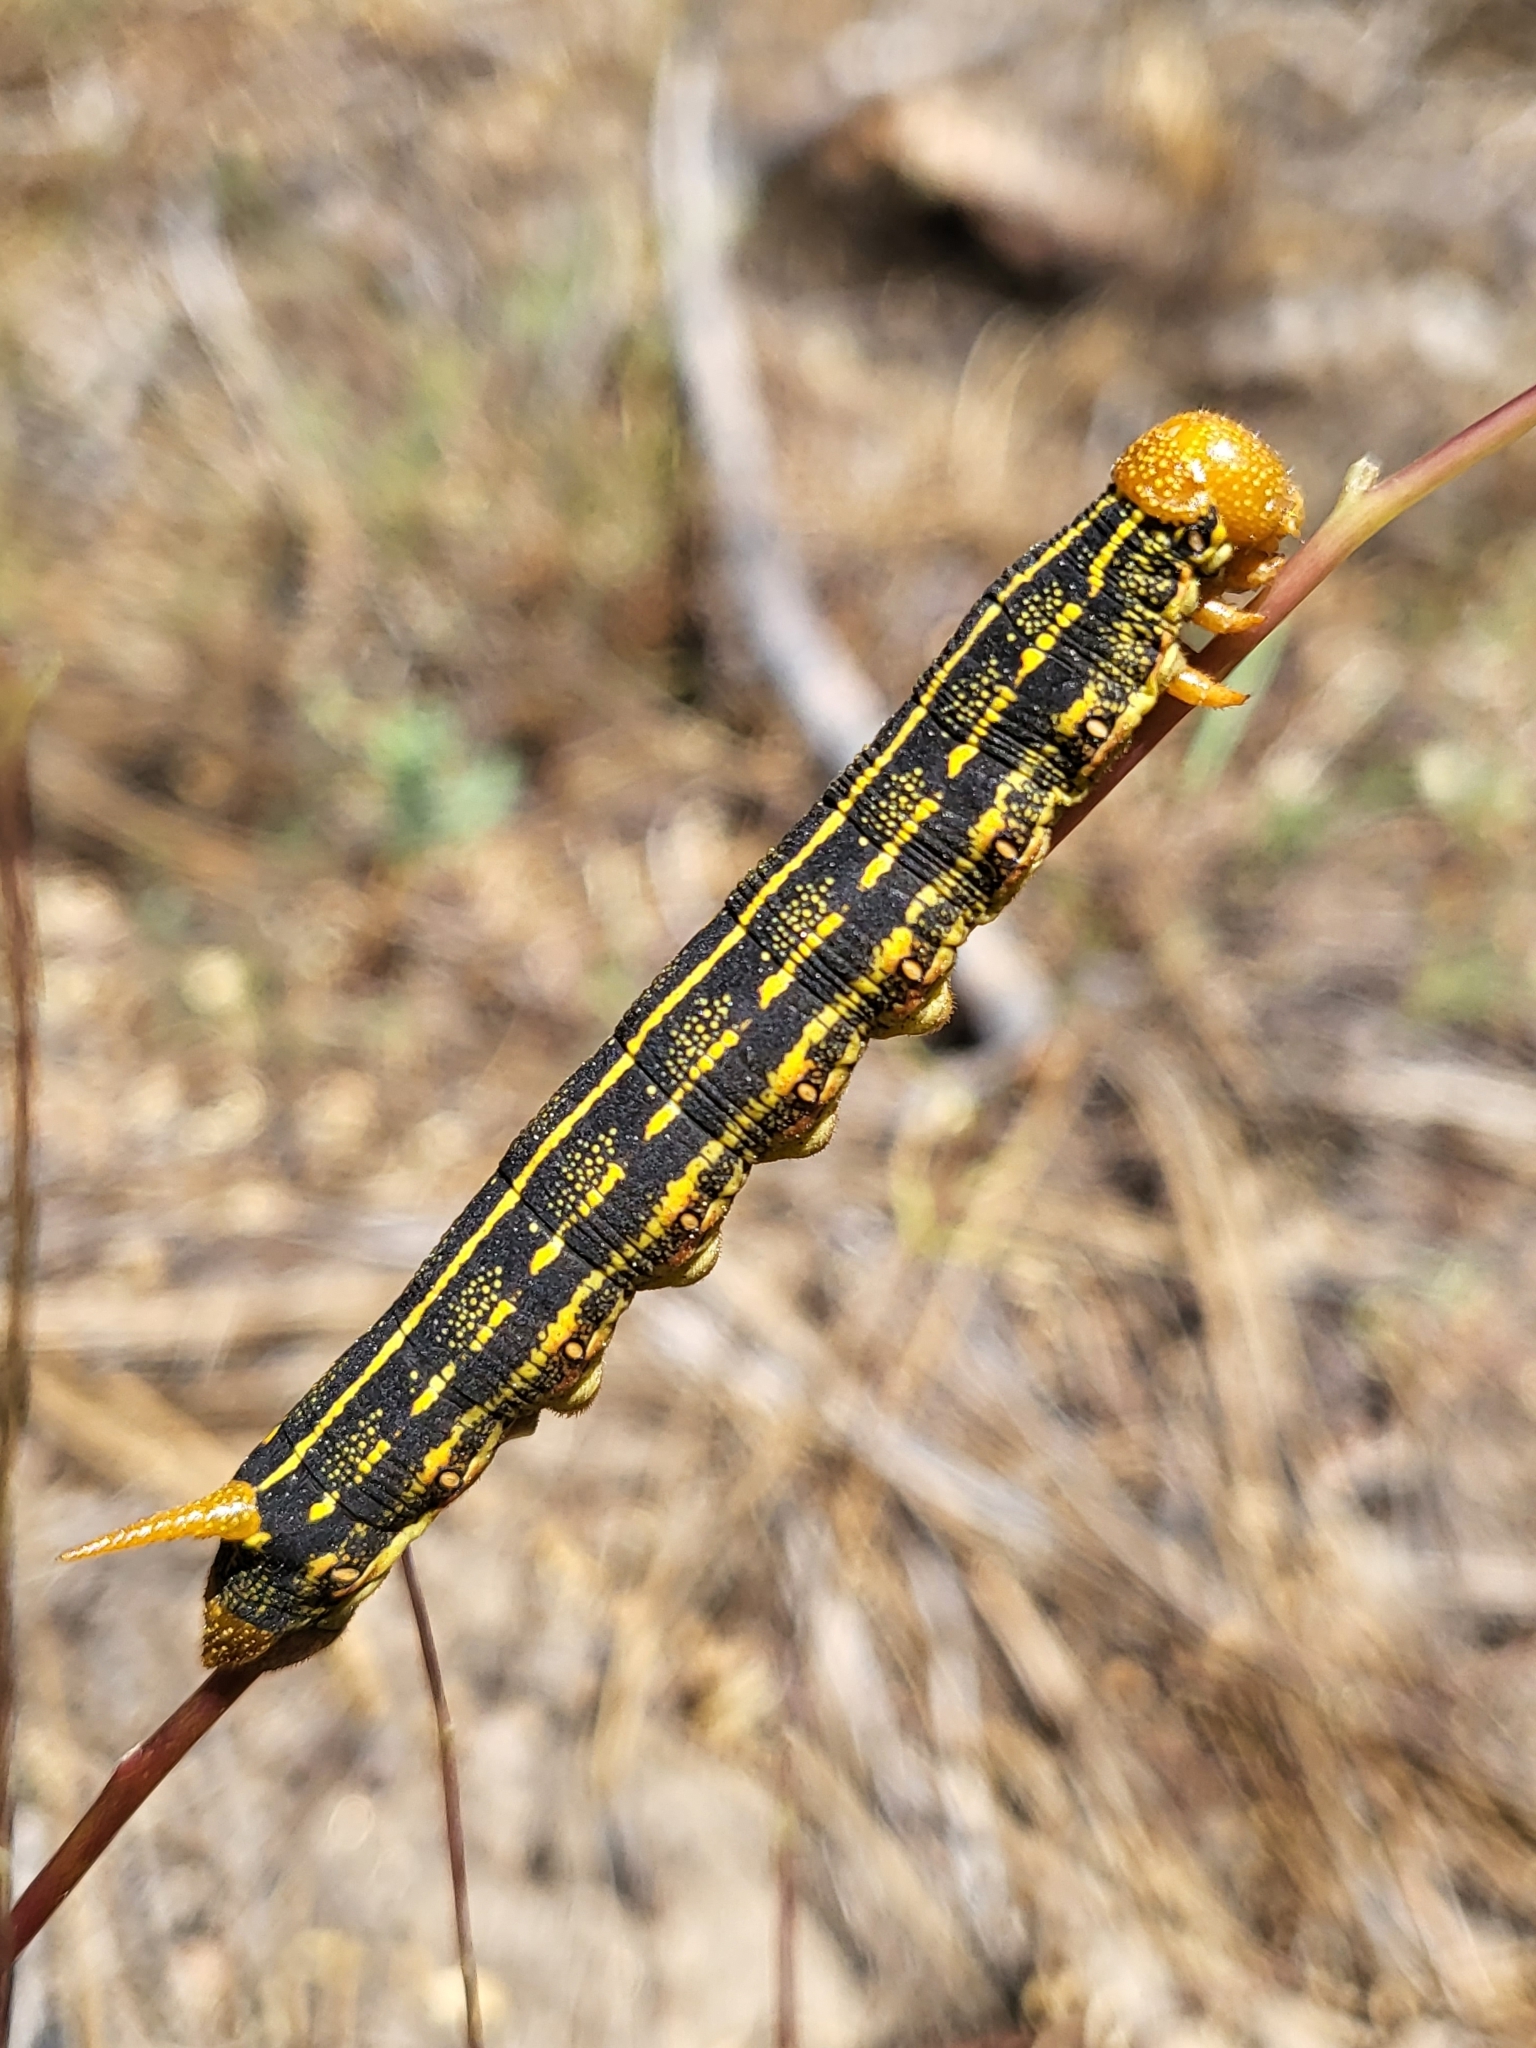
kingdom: Animalia
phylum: Arthropoda
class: Insecta
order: Lepidoptera
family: Sphingidae
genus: Hyles
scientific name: Hyles lineata
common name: White-lined sphinx
